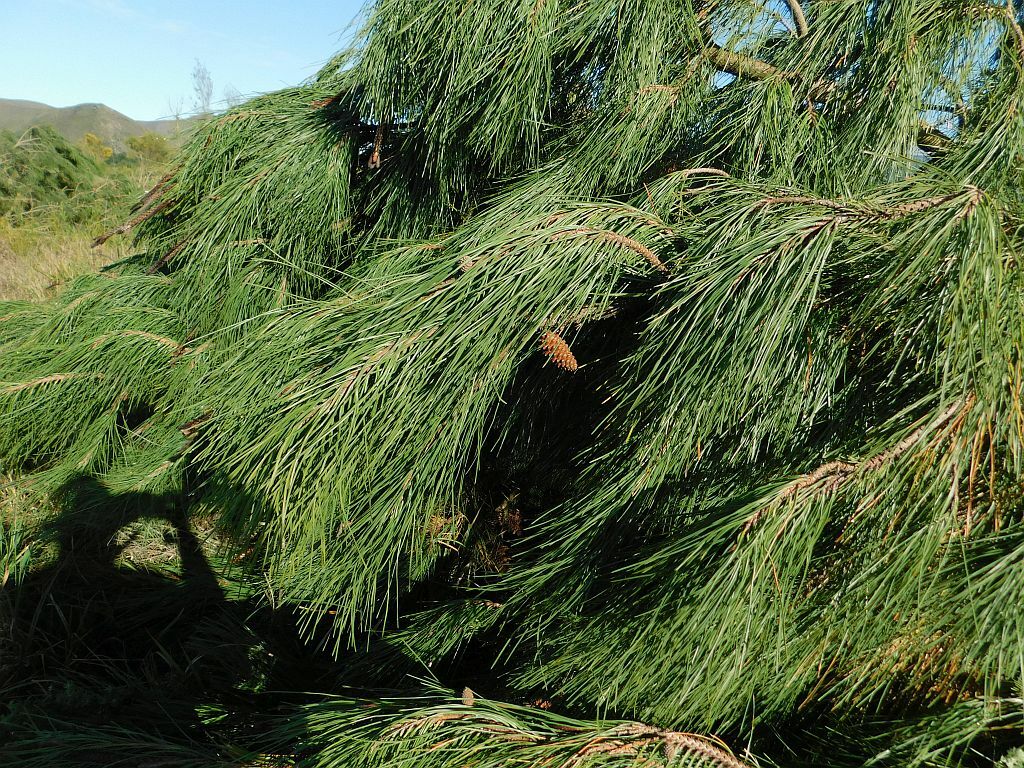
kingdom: Plantae
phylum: Tracheophyta
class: Pinopsida
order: Pinales
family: Pinaceae
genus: Pinus
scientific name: Pinus pinaster
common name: Maritime pine
